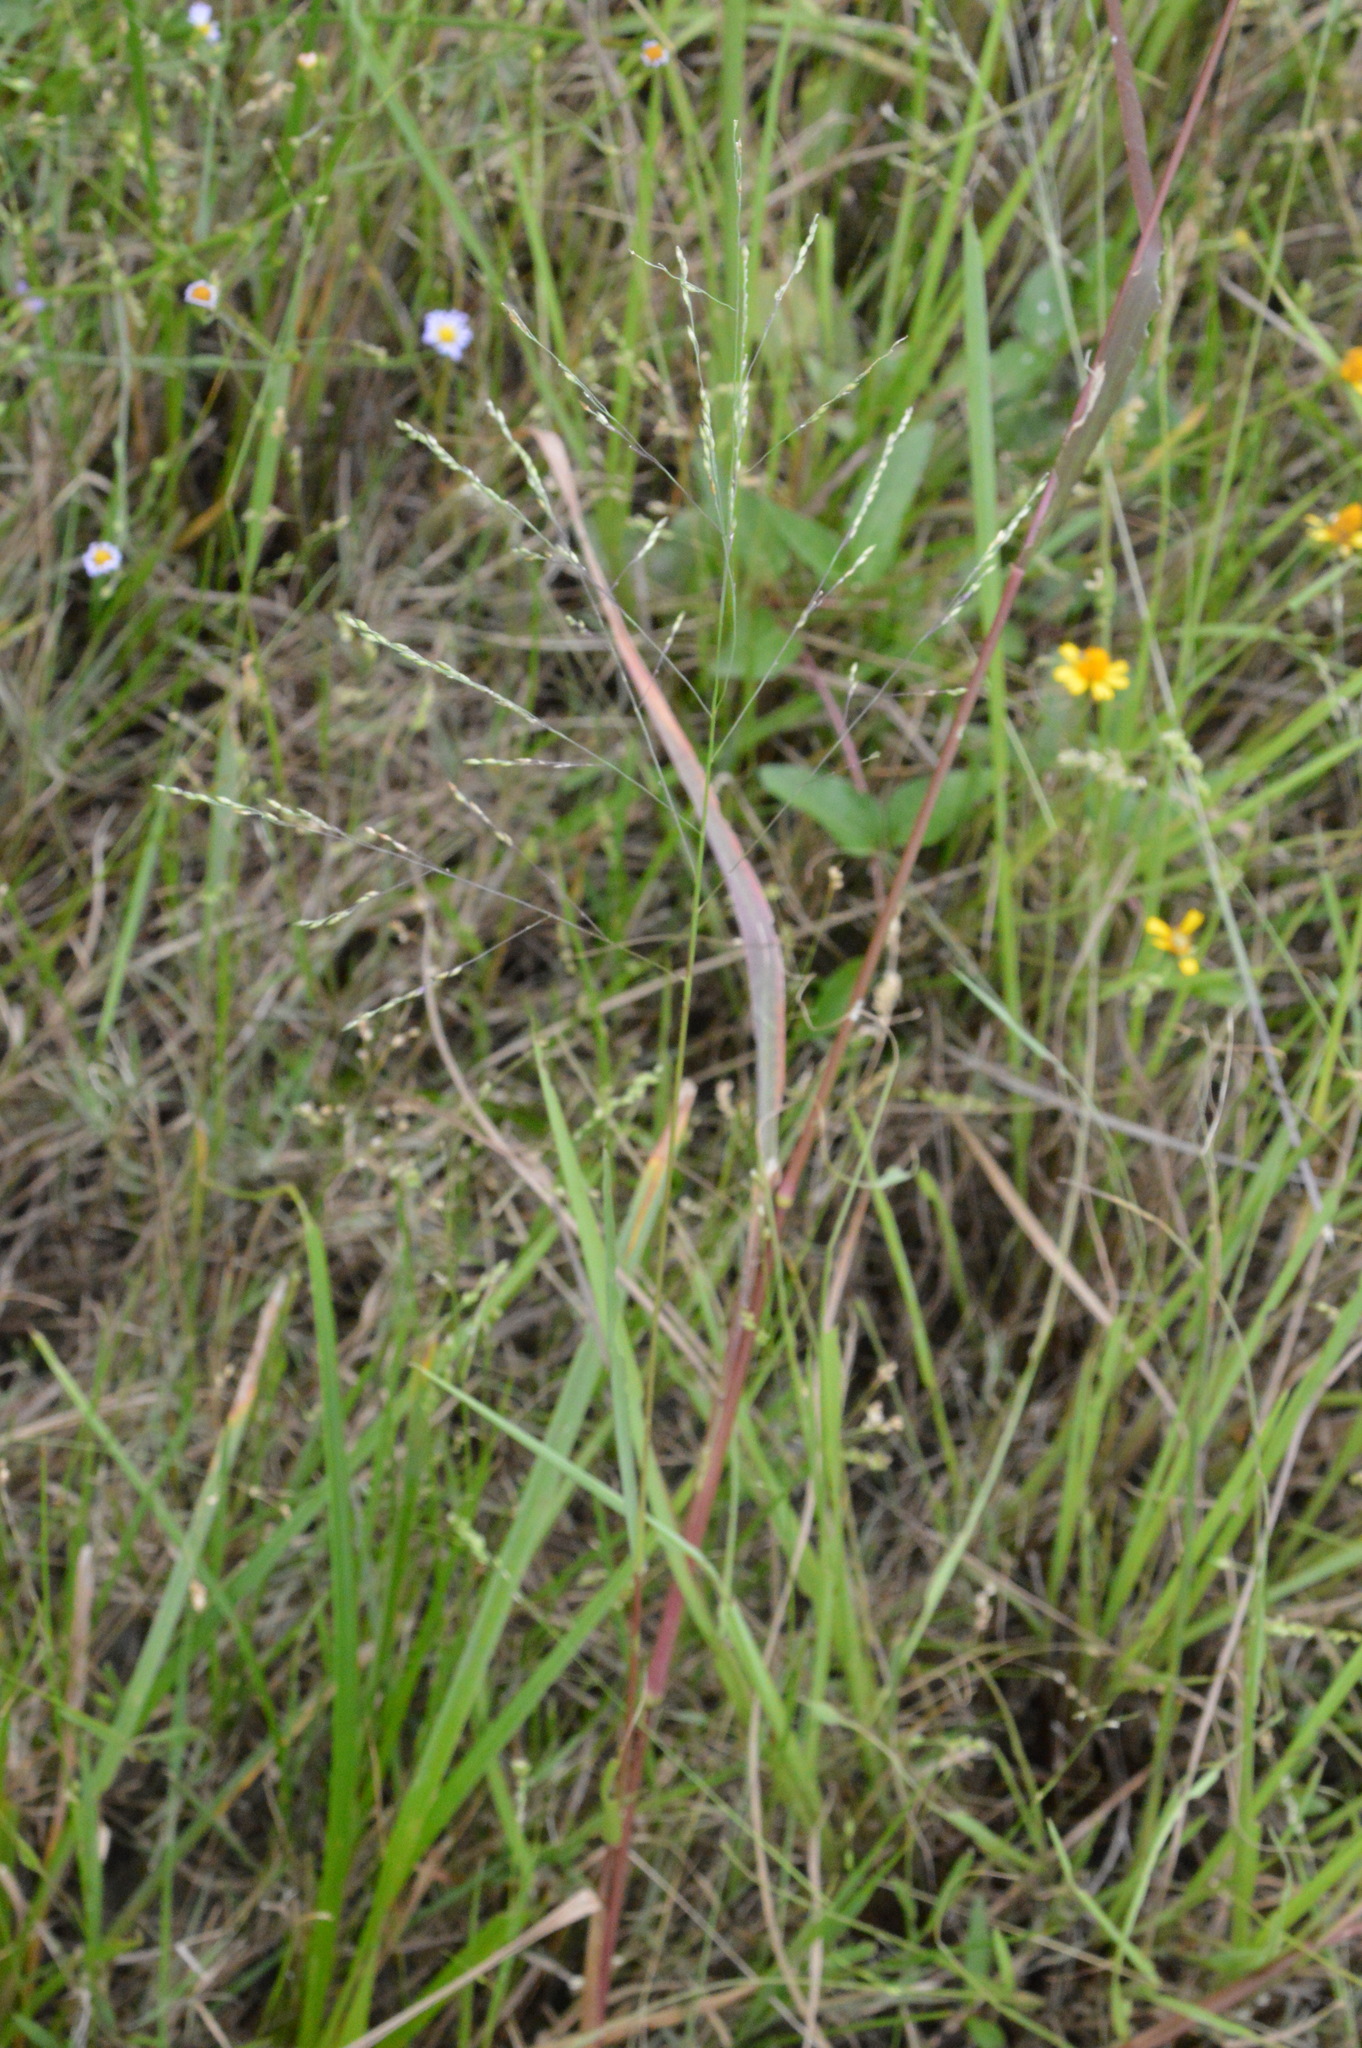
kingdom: Plantae
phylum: Tracheophyta
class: Liliopsida
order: Poales
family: Poaceae
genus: Panicum
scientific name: Panicum dichotomiflorum
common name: Autumn millet
